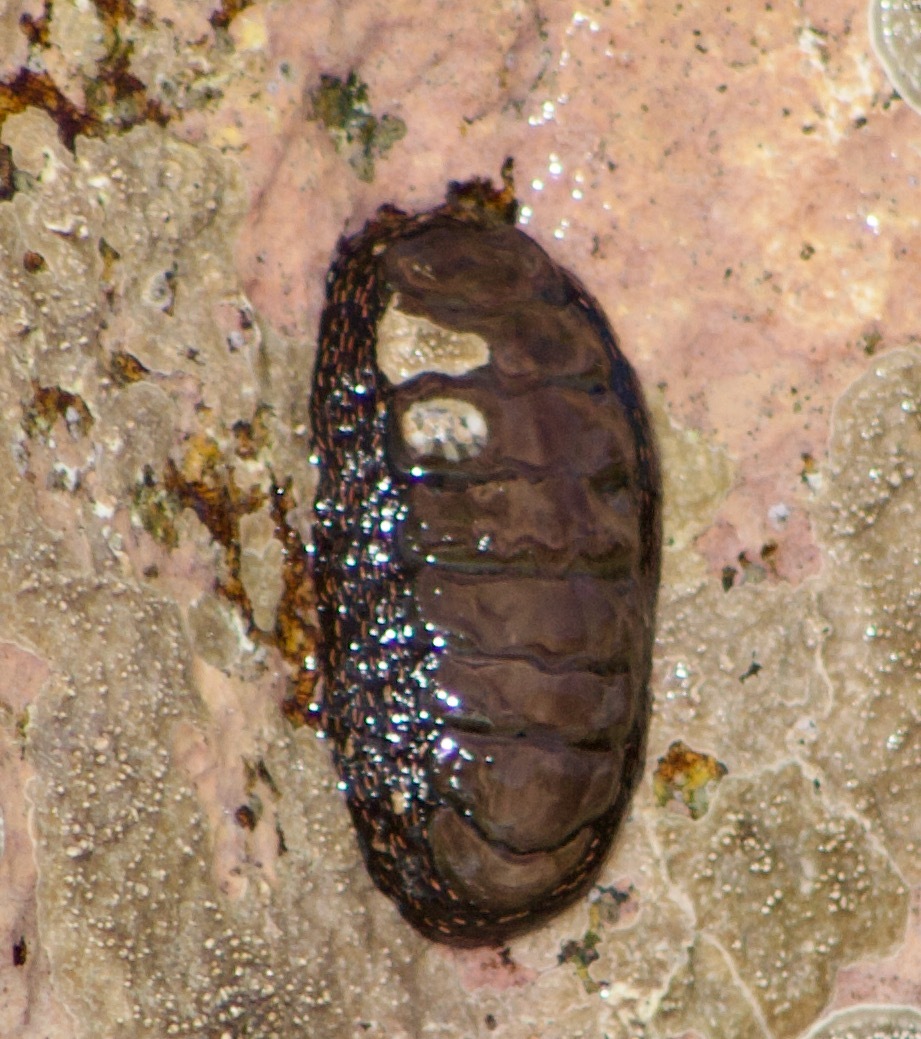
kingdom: Animalia
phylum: Mollusca
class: Polyplacophora
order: Chitonida
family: Chitonidae
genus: Enoplochiton
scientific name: Enoplochiton niger
